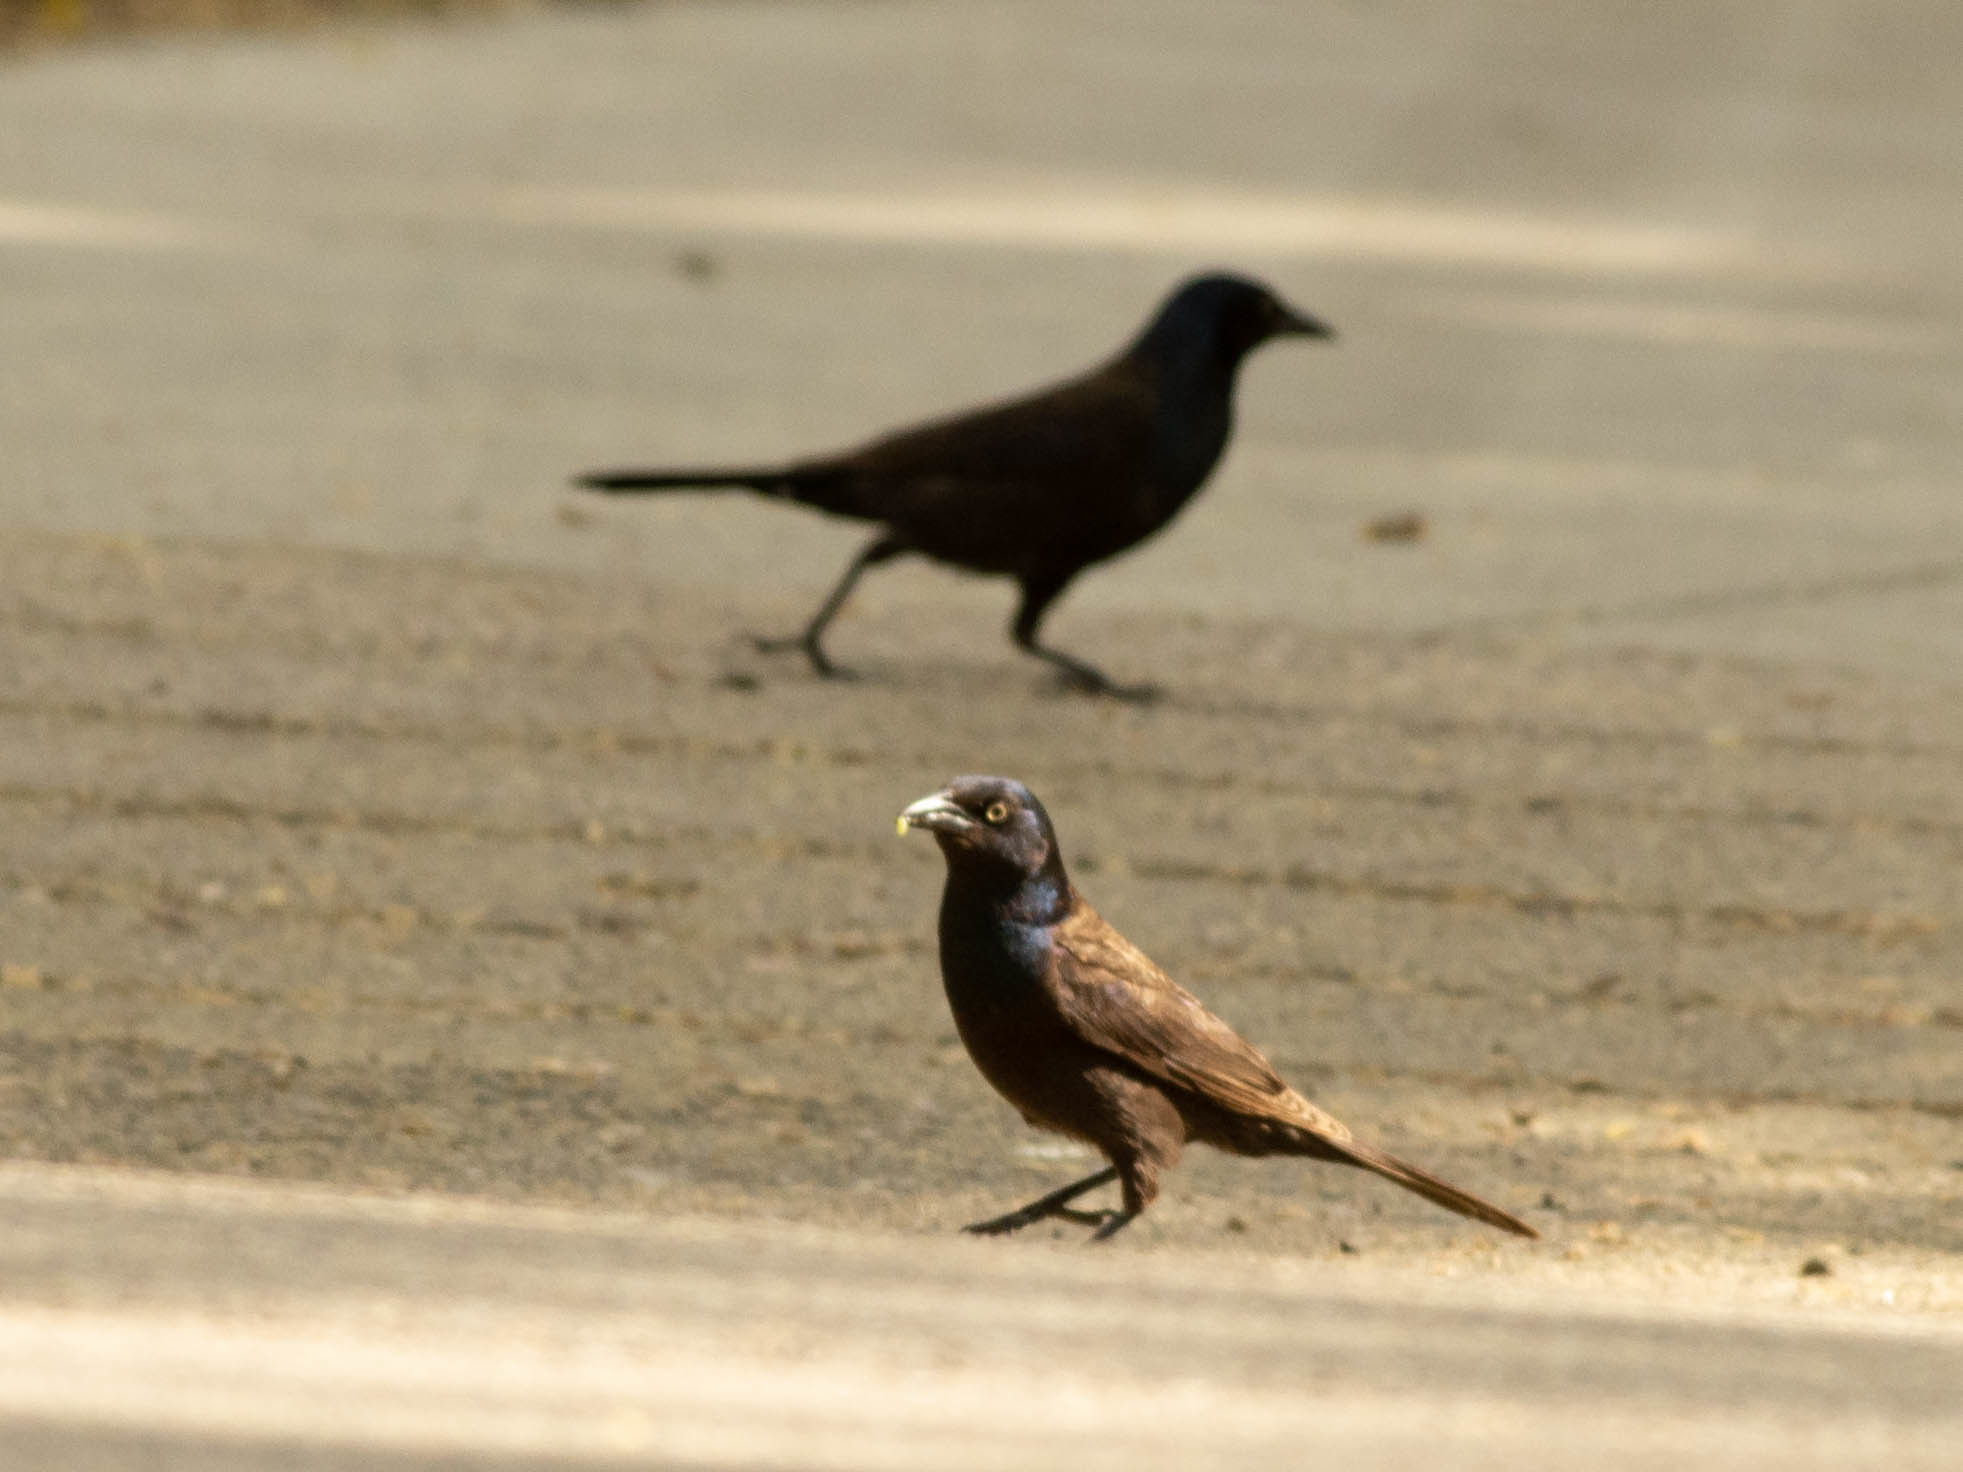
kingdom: Animalia
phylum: Chordata
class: Aves
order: Passeriformes
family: Icteridae
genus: Quiscalus
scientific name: Quiscalus quiscula
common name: Common grackle
